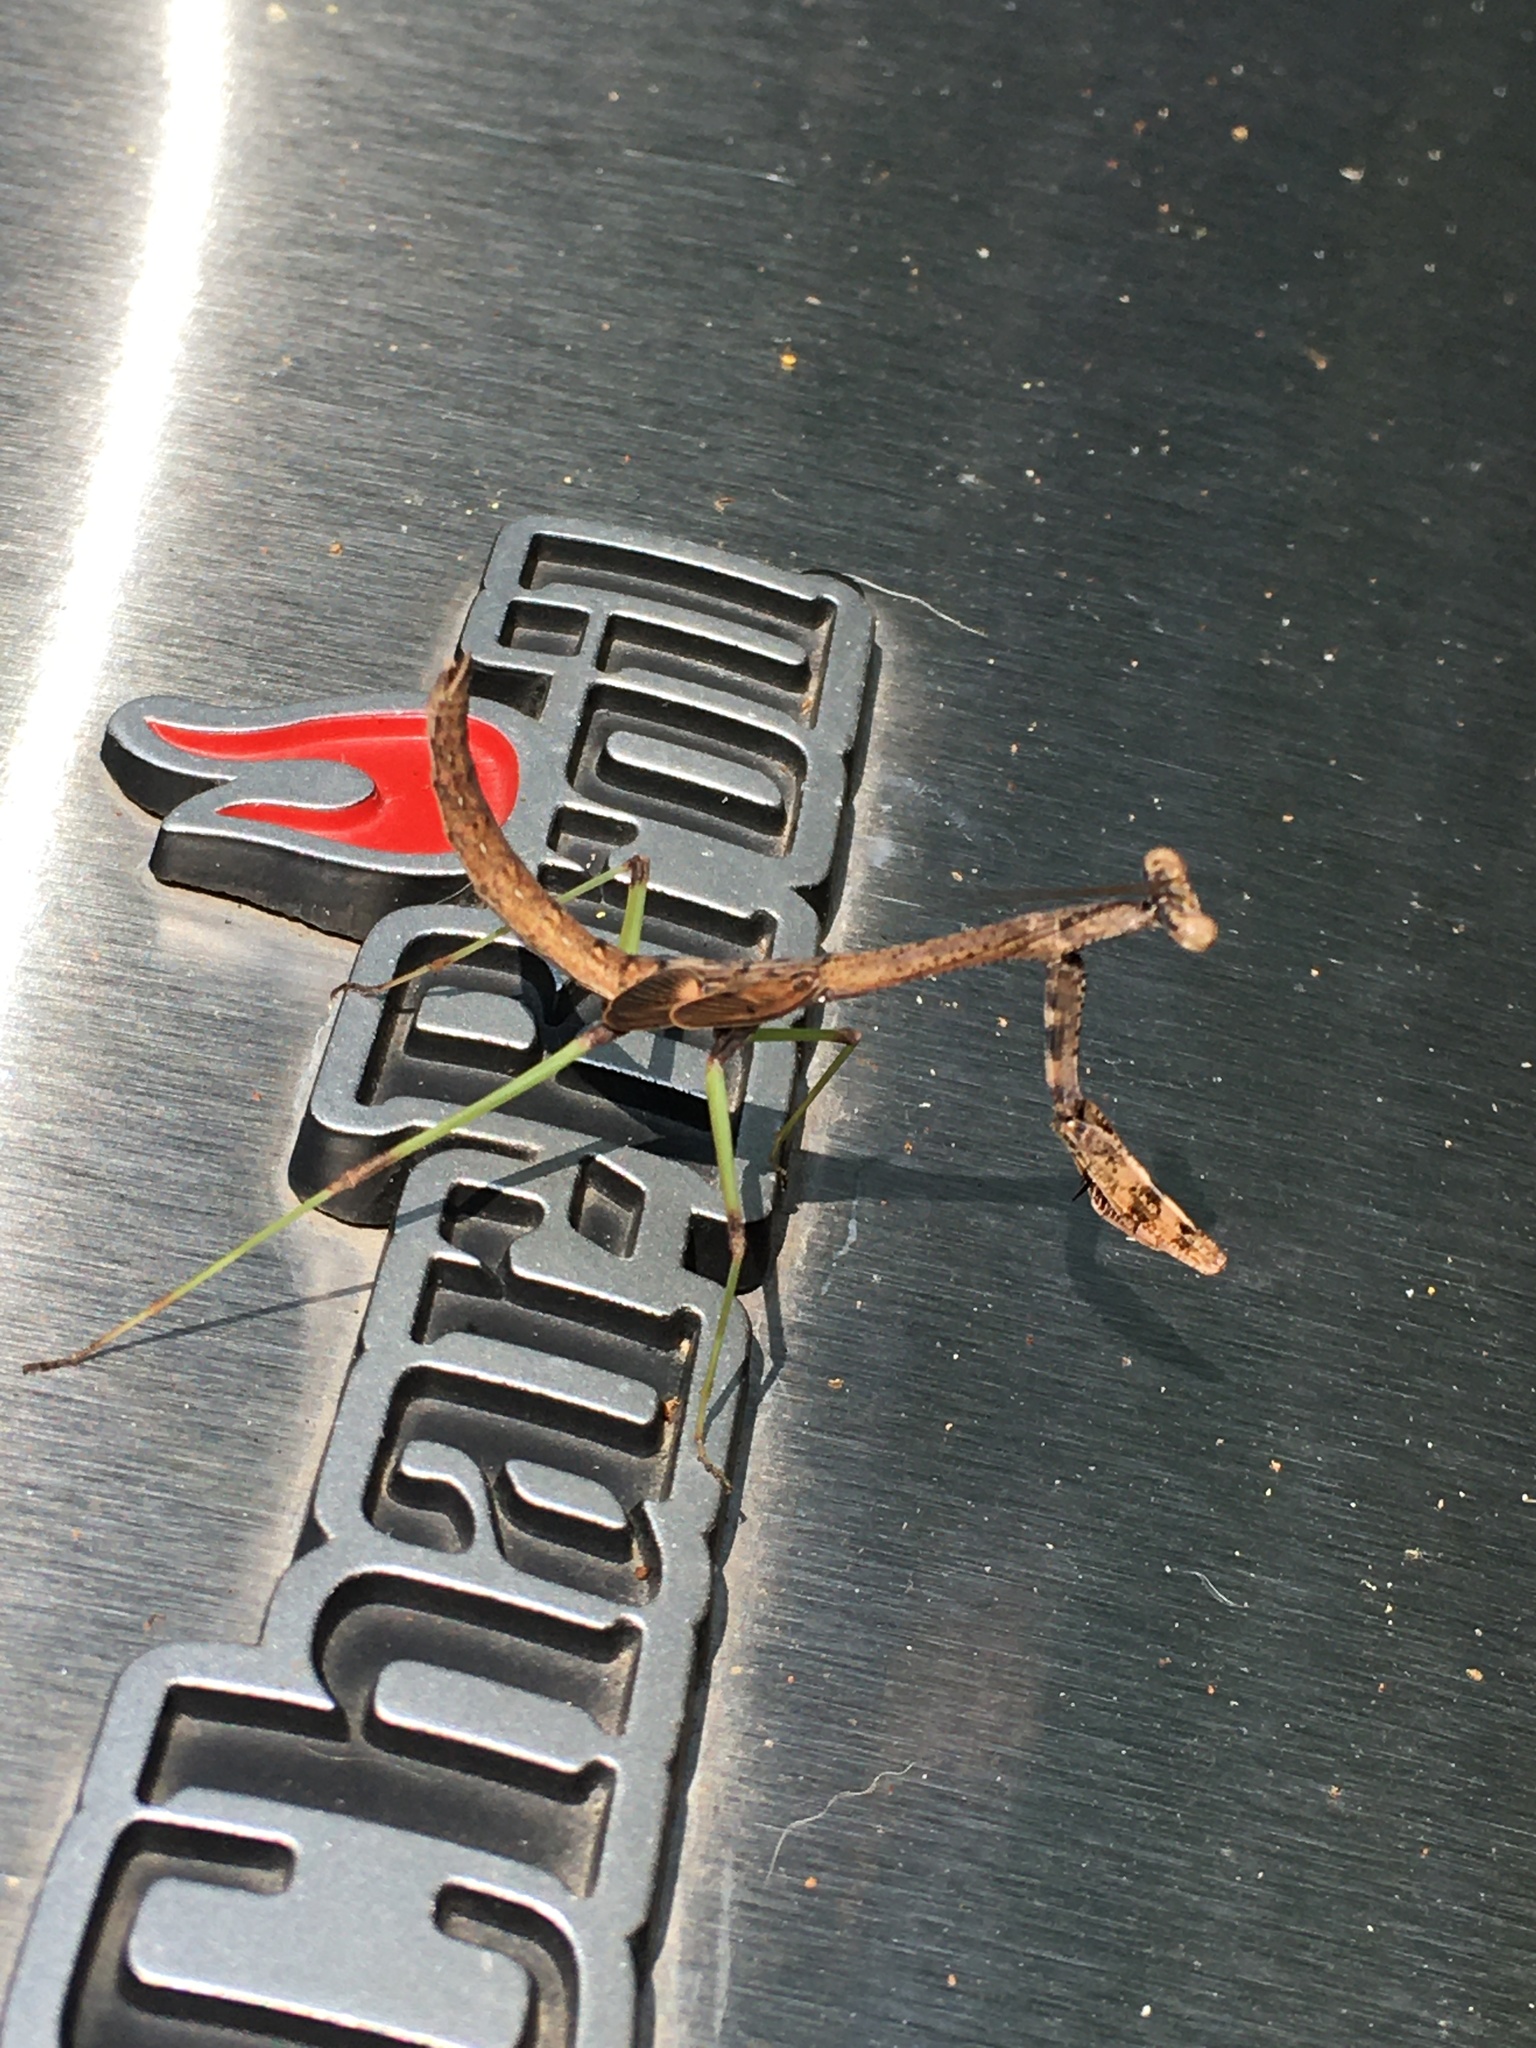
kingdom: Animalia
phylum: Arthropoda
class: Insecta
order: Mantodea
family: Mantidae
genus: Stagmomantis
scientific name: Stagmomantis carolina
